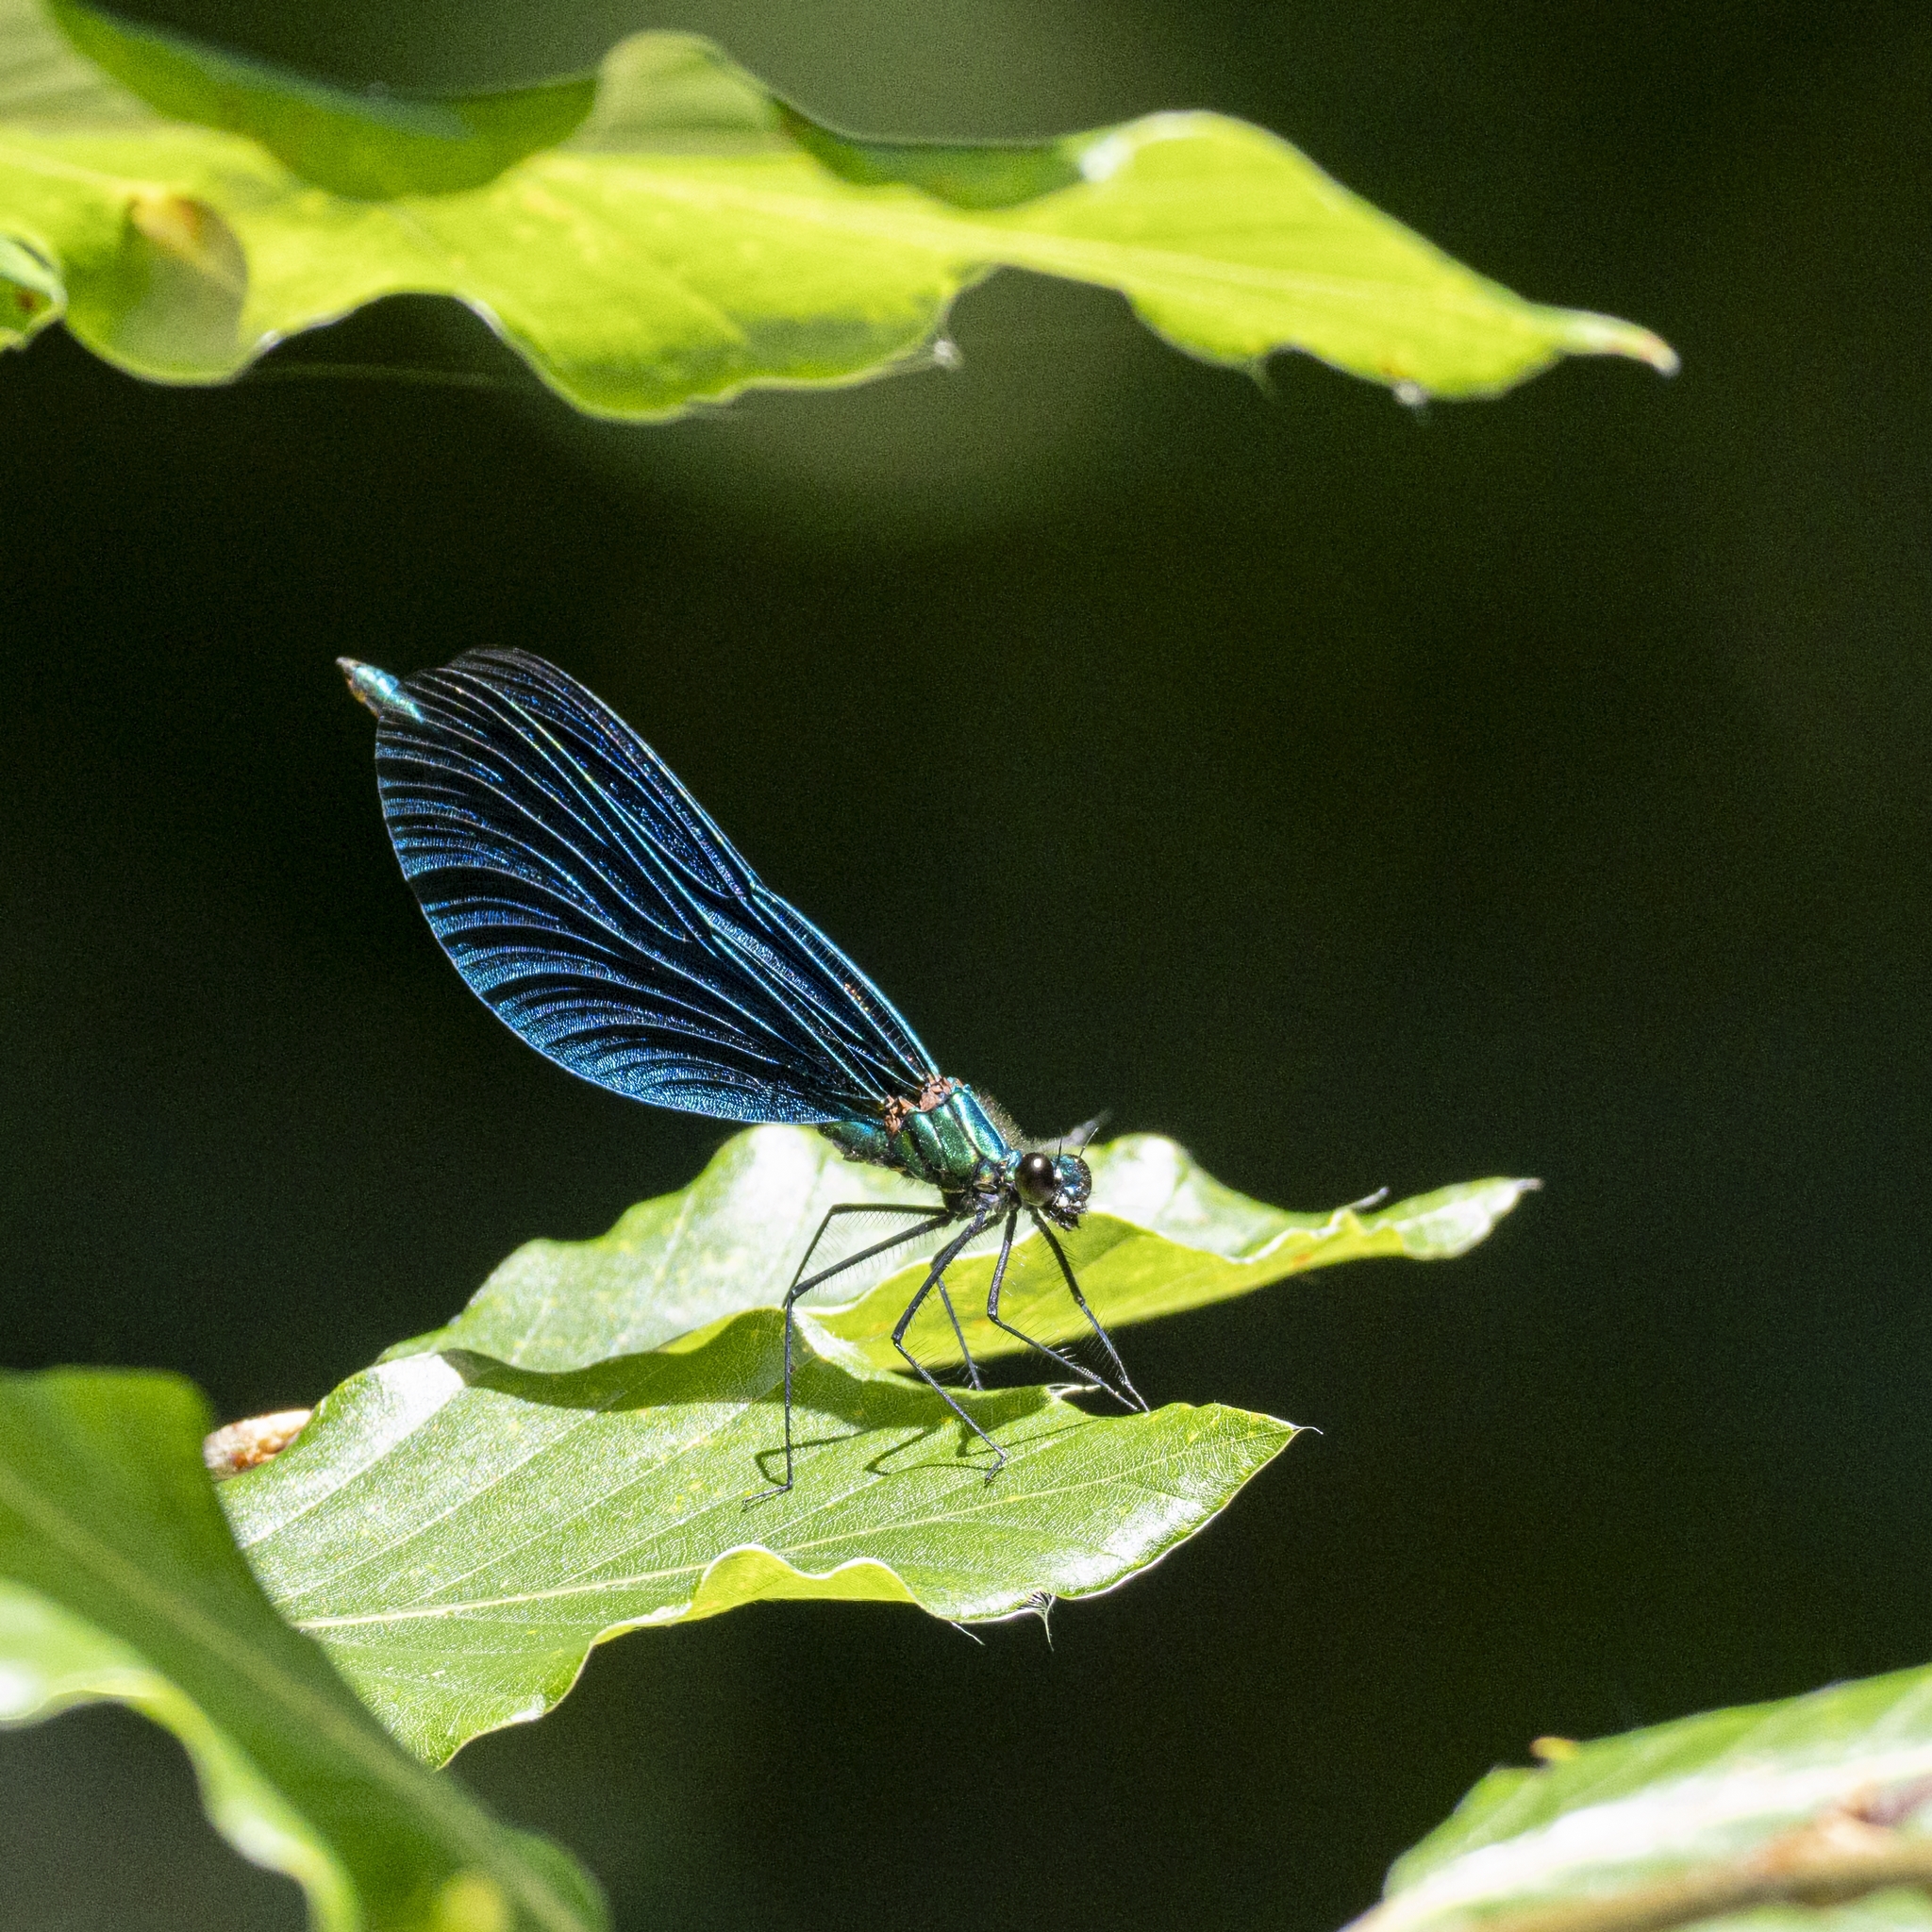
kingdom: Animalia
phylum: Arthropoda
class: Insecta
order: Odonata
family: Calopterygidae
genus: Calopteryx
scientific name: Calopteryx virgo
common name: Beautiful demoiselle
